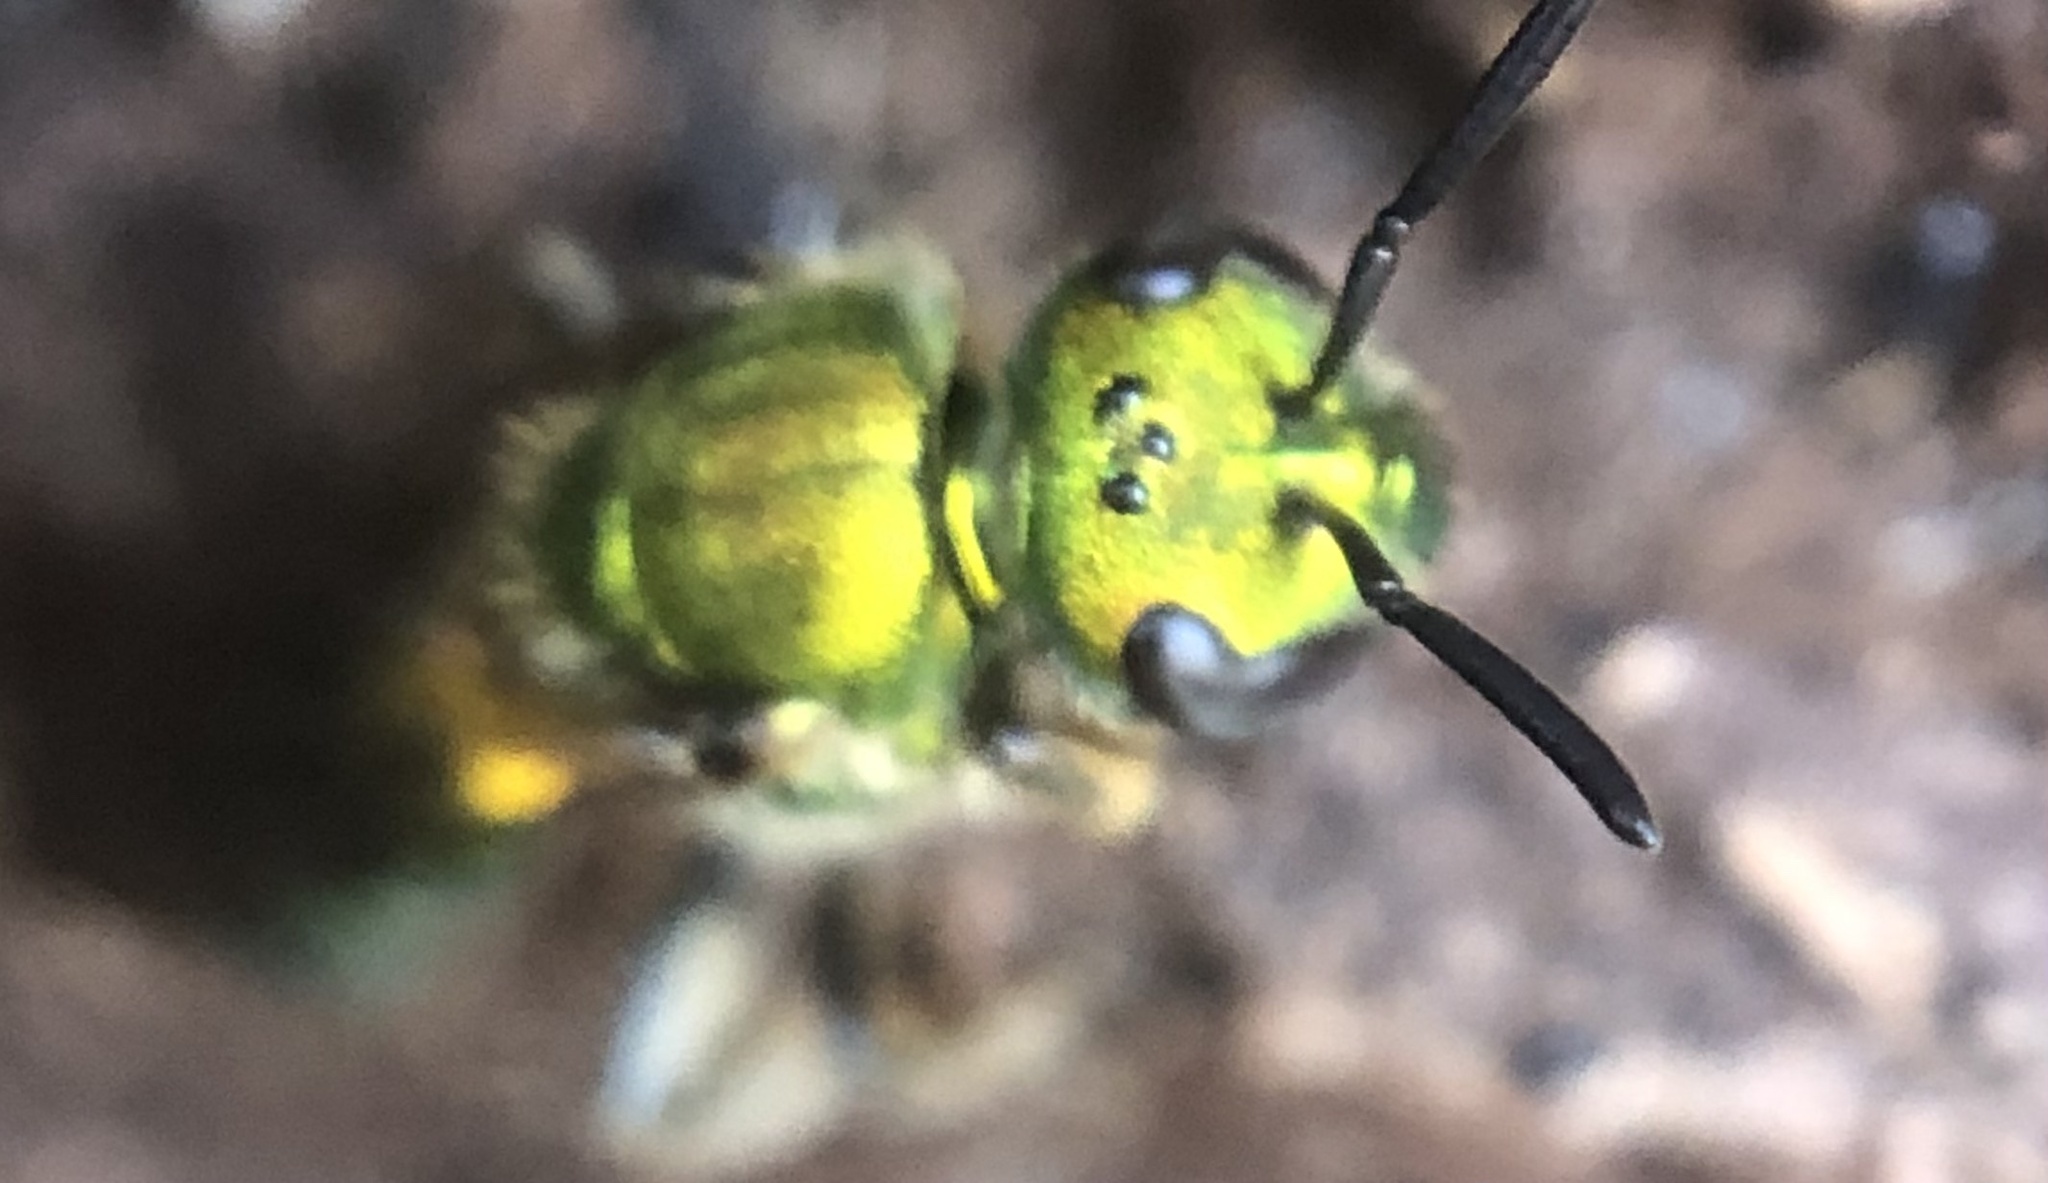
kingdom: Animalia
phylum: Arthropoda
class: Insecta
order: Hymenoptera
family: Halictidae
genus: Augochlora
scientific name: Augochlora pura
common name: Pure green sweat bee
